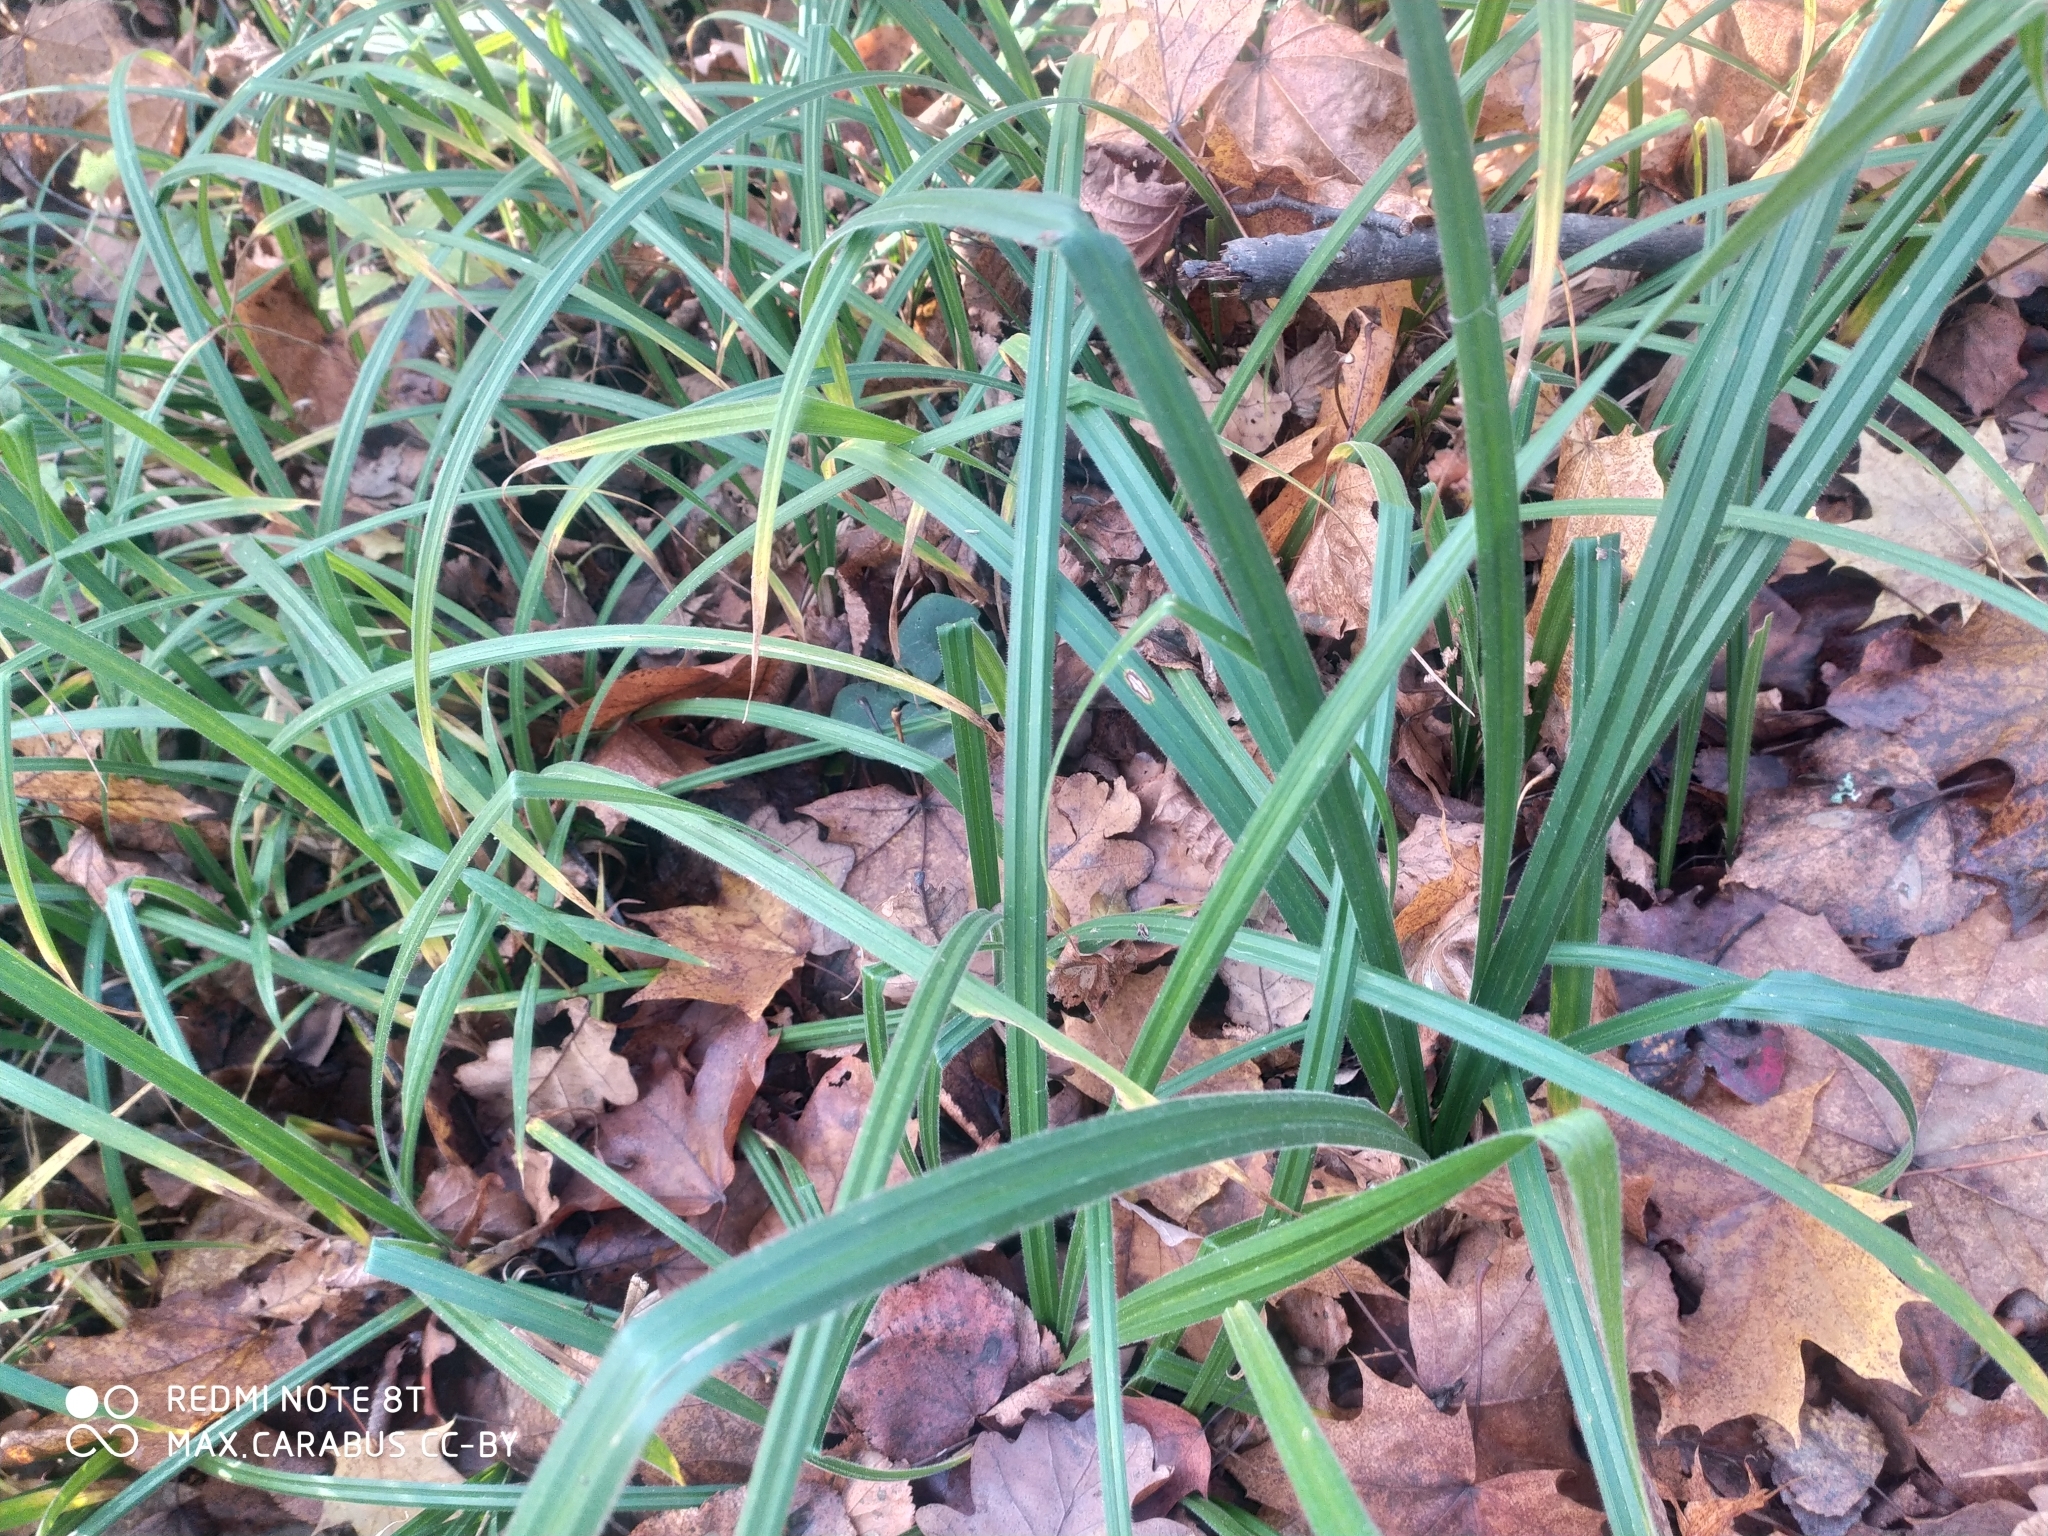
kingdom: Plantae
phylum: Tracheophyta
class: Liliopsida
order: Poales
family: Cyperaceae
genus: Carex
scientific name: Carex pilosa
